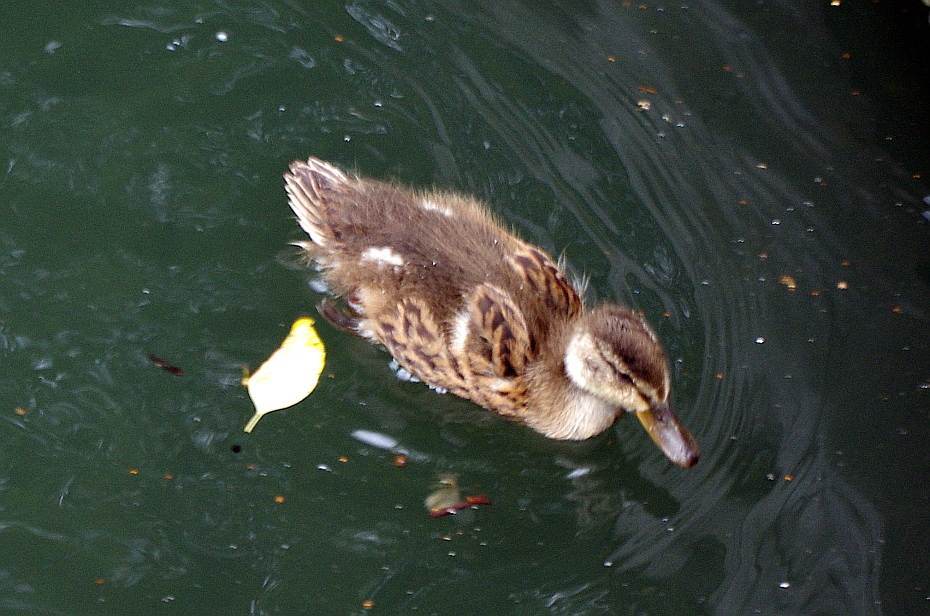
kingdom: Animalia
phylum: Chordata
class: Aves
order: Anseriformes
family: Anatidae
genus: Anas
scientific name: Anas platyrhynchos
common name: Mallard
